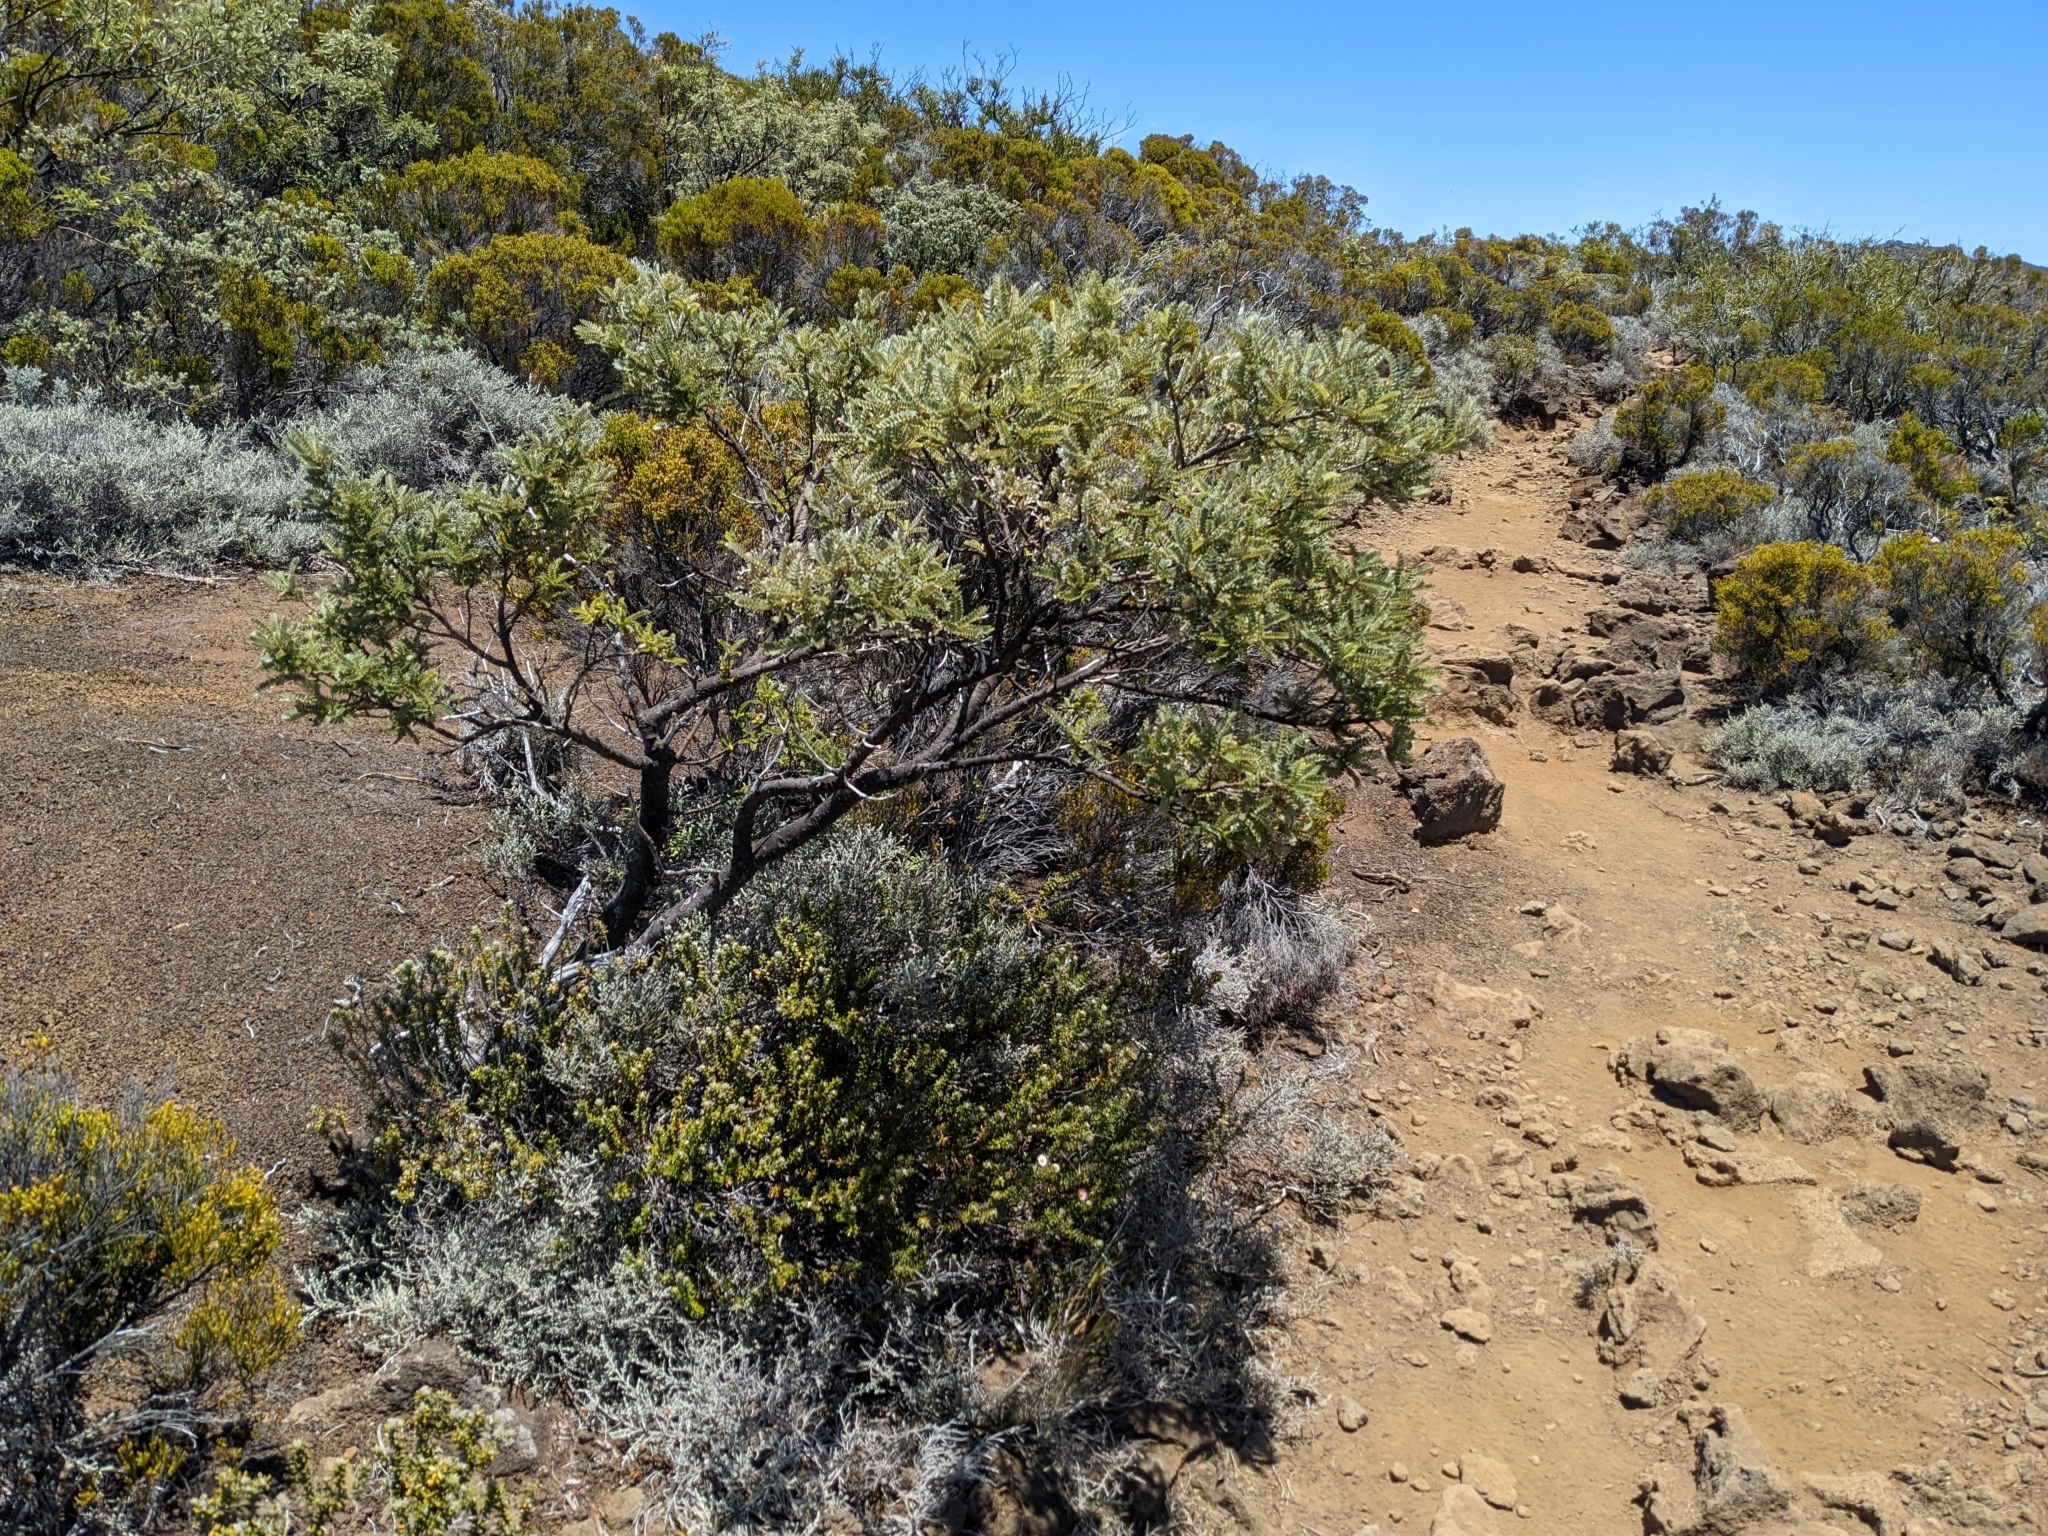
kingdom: Plantae
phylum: Tracheophyta
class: Magnoliopsida
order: Fabales
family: Fabaceae
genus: Sophora
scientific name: Sophora denudata
